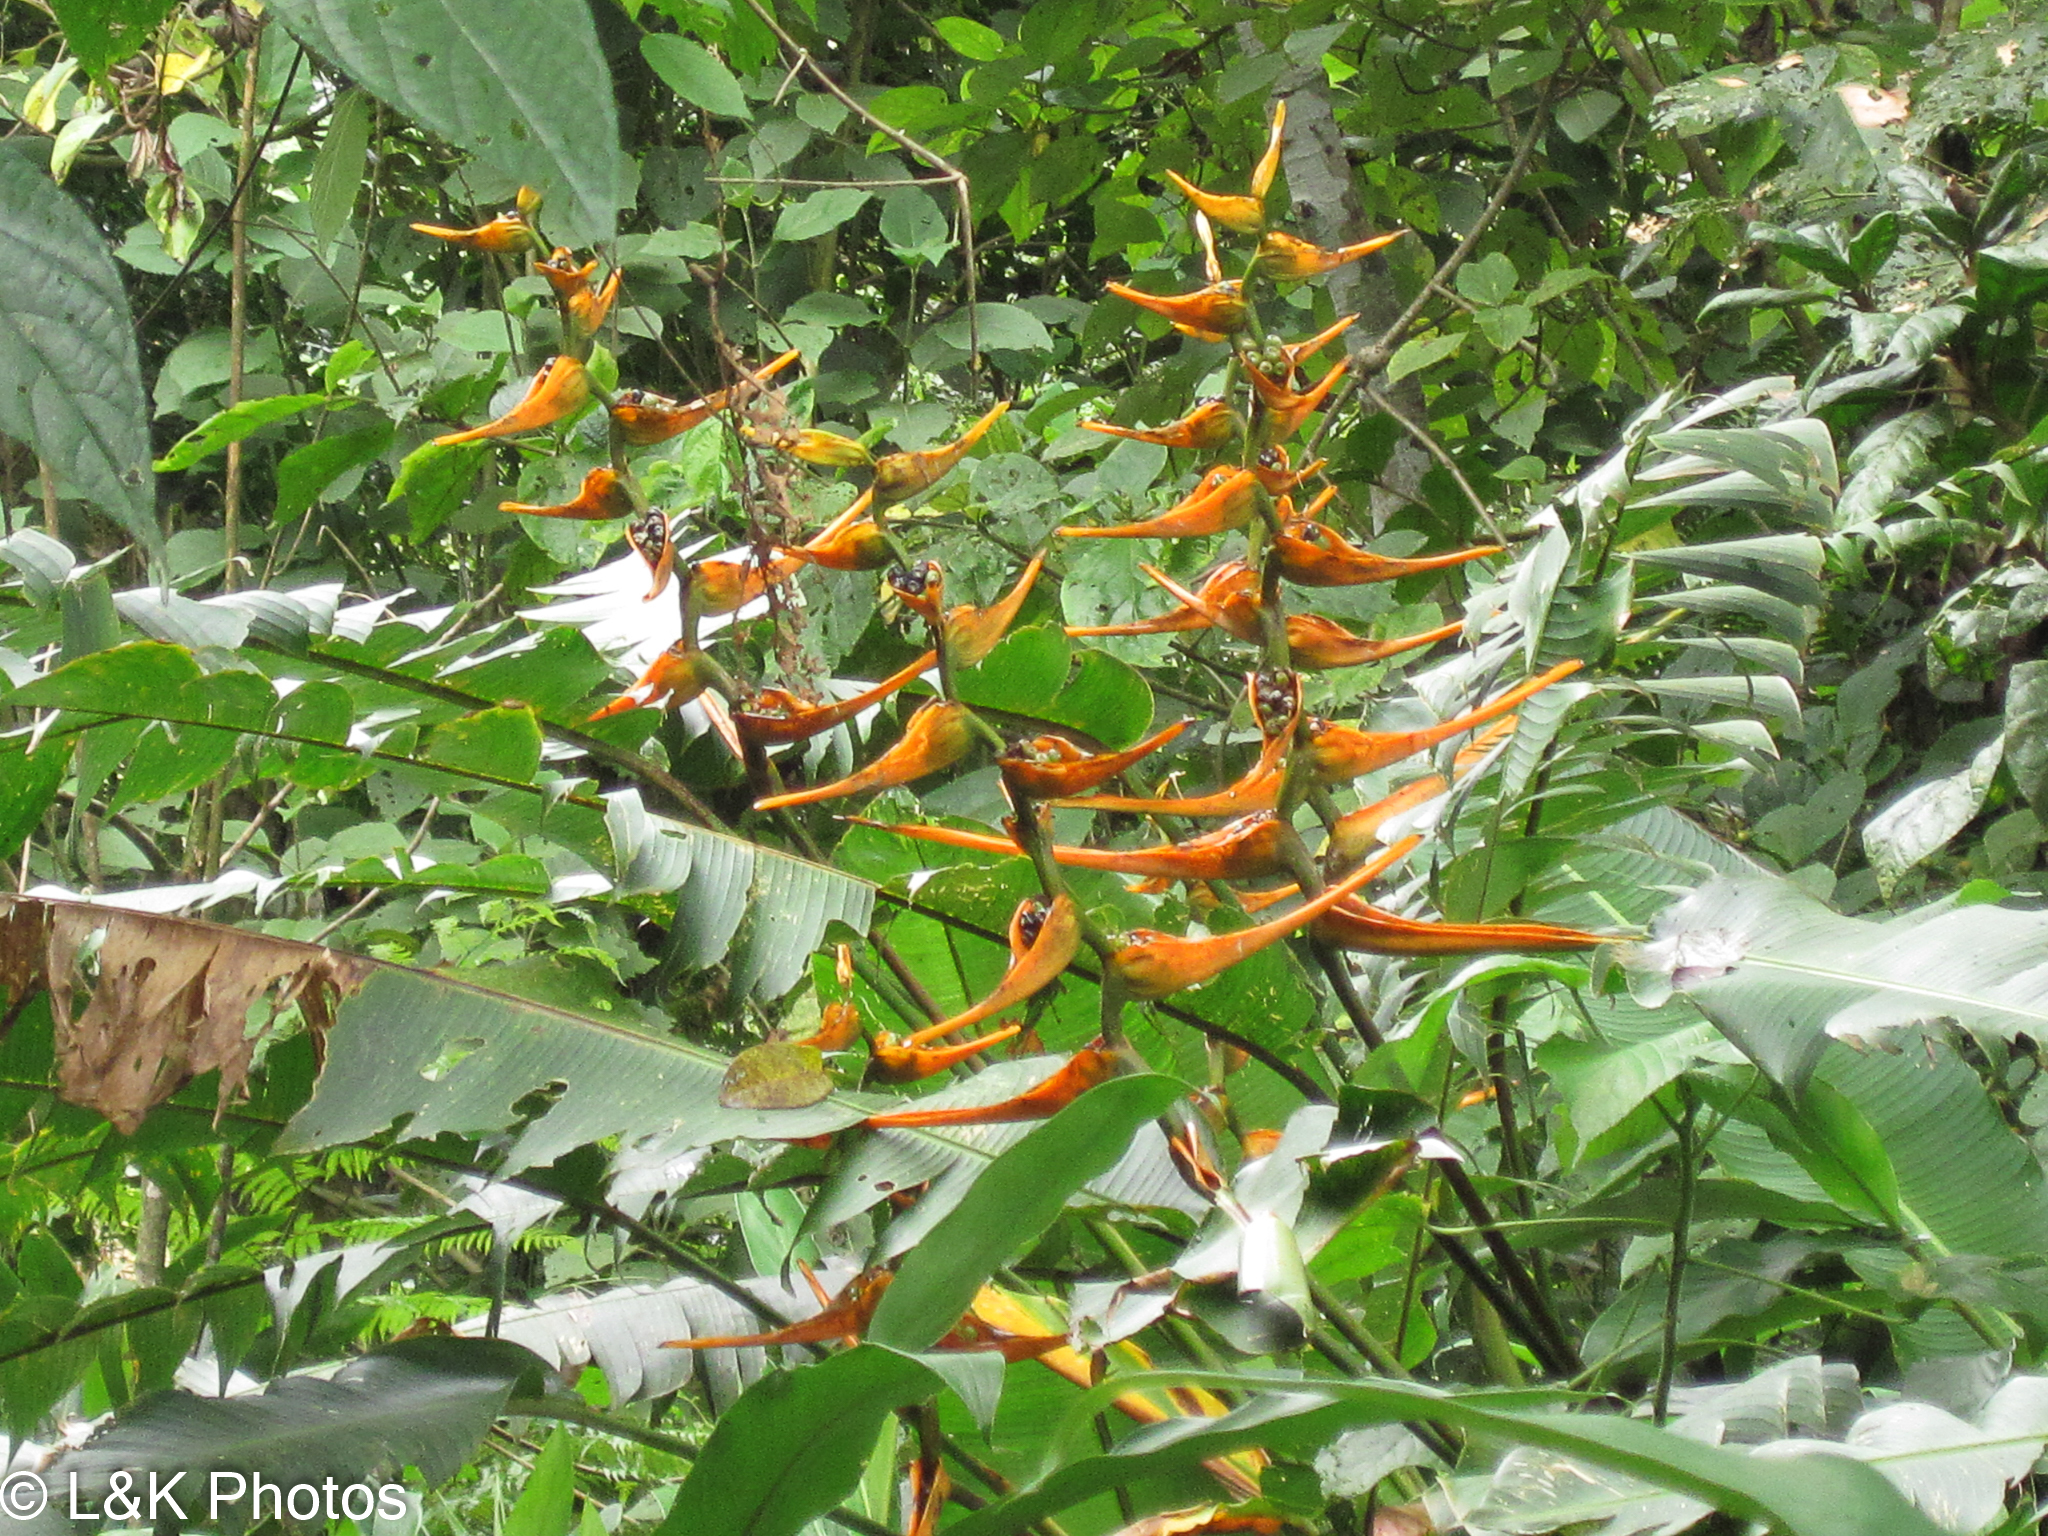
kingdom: Plantae
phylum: Tracheophyta
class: Liliopsida
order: Zingiberales
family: Heliconiaceae
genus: Heliconia
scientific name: Heliconia latispatha
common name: Expanded lobsterclaw
